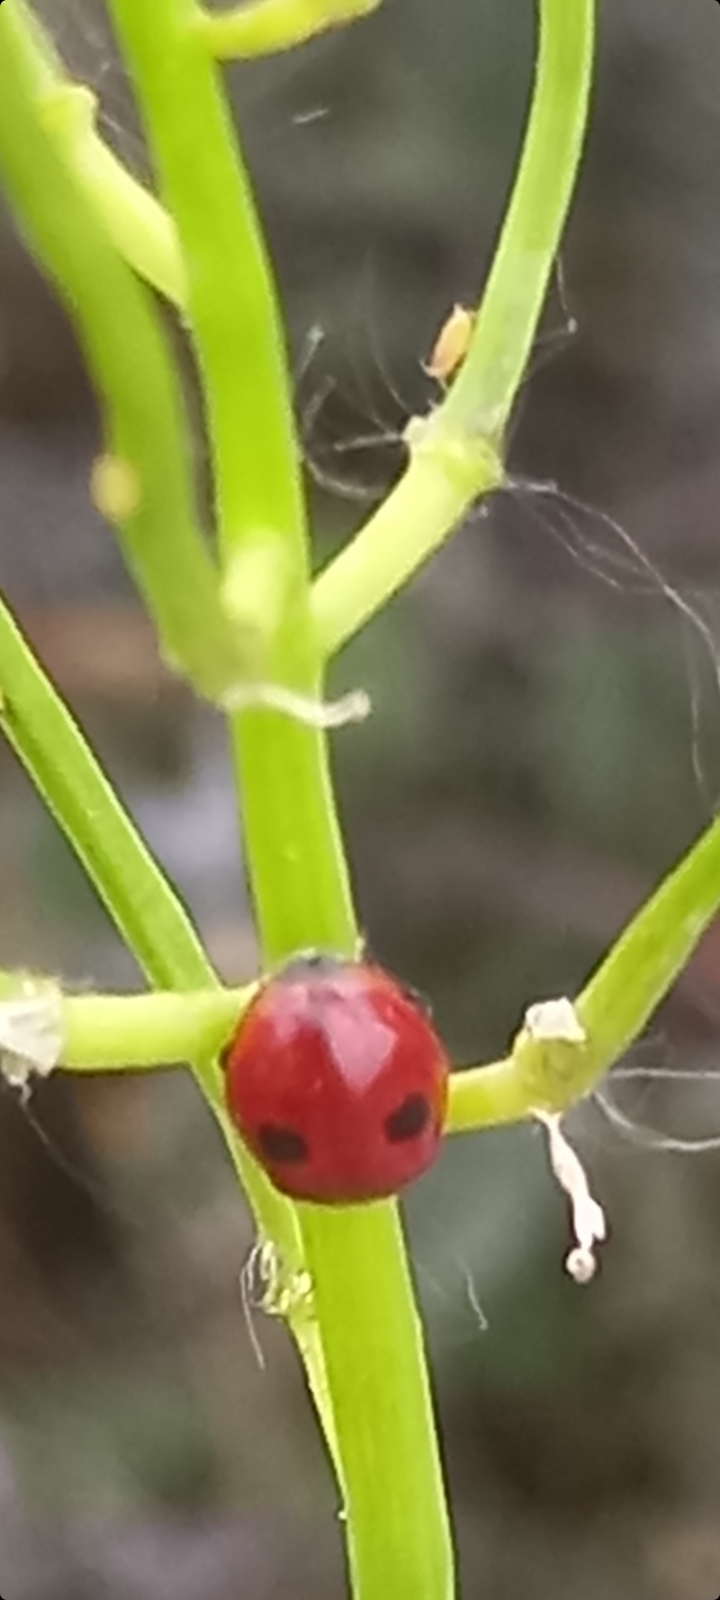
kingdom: Animalia
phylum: Arthropoda
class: Insecta
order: Coleoptera
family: Coccinellidae
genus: Adalia
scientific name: Adalia bipunctata
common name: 2-spot ladybird
